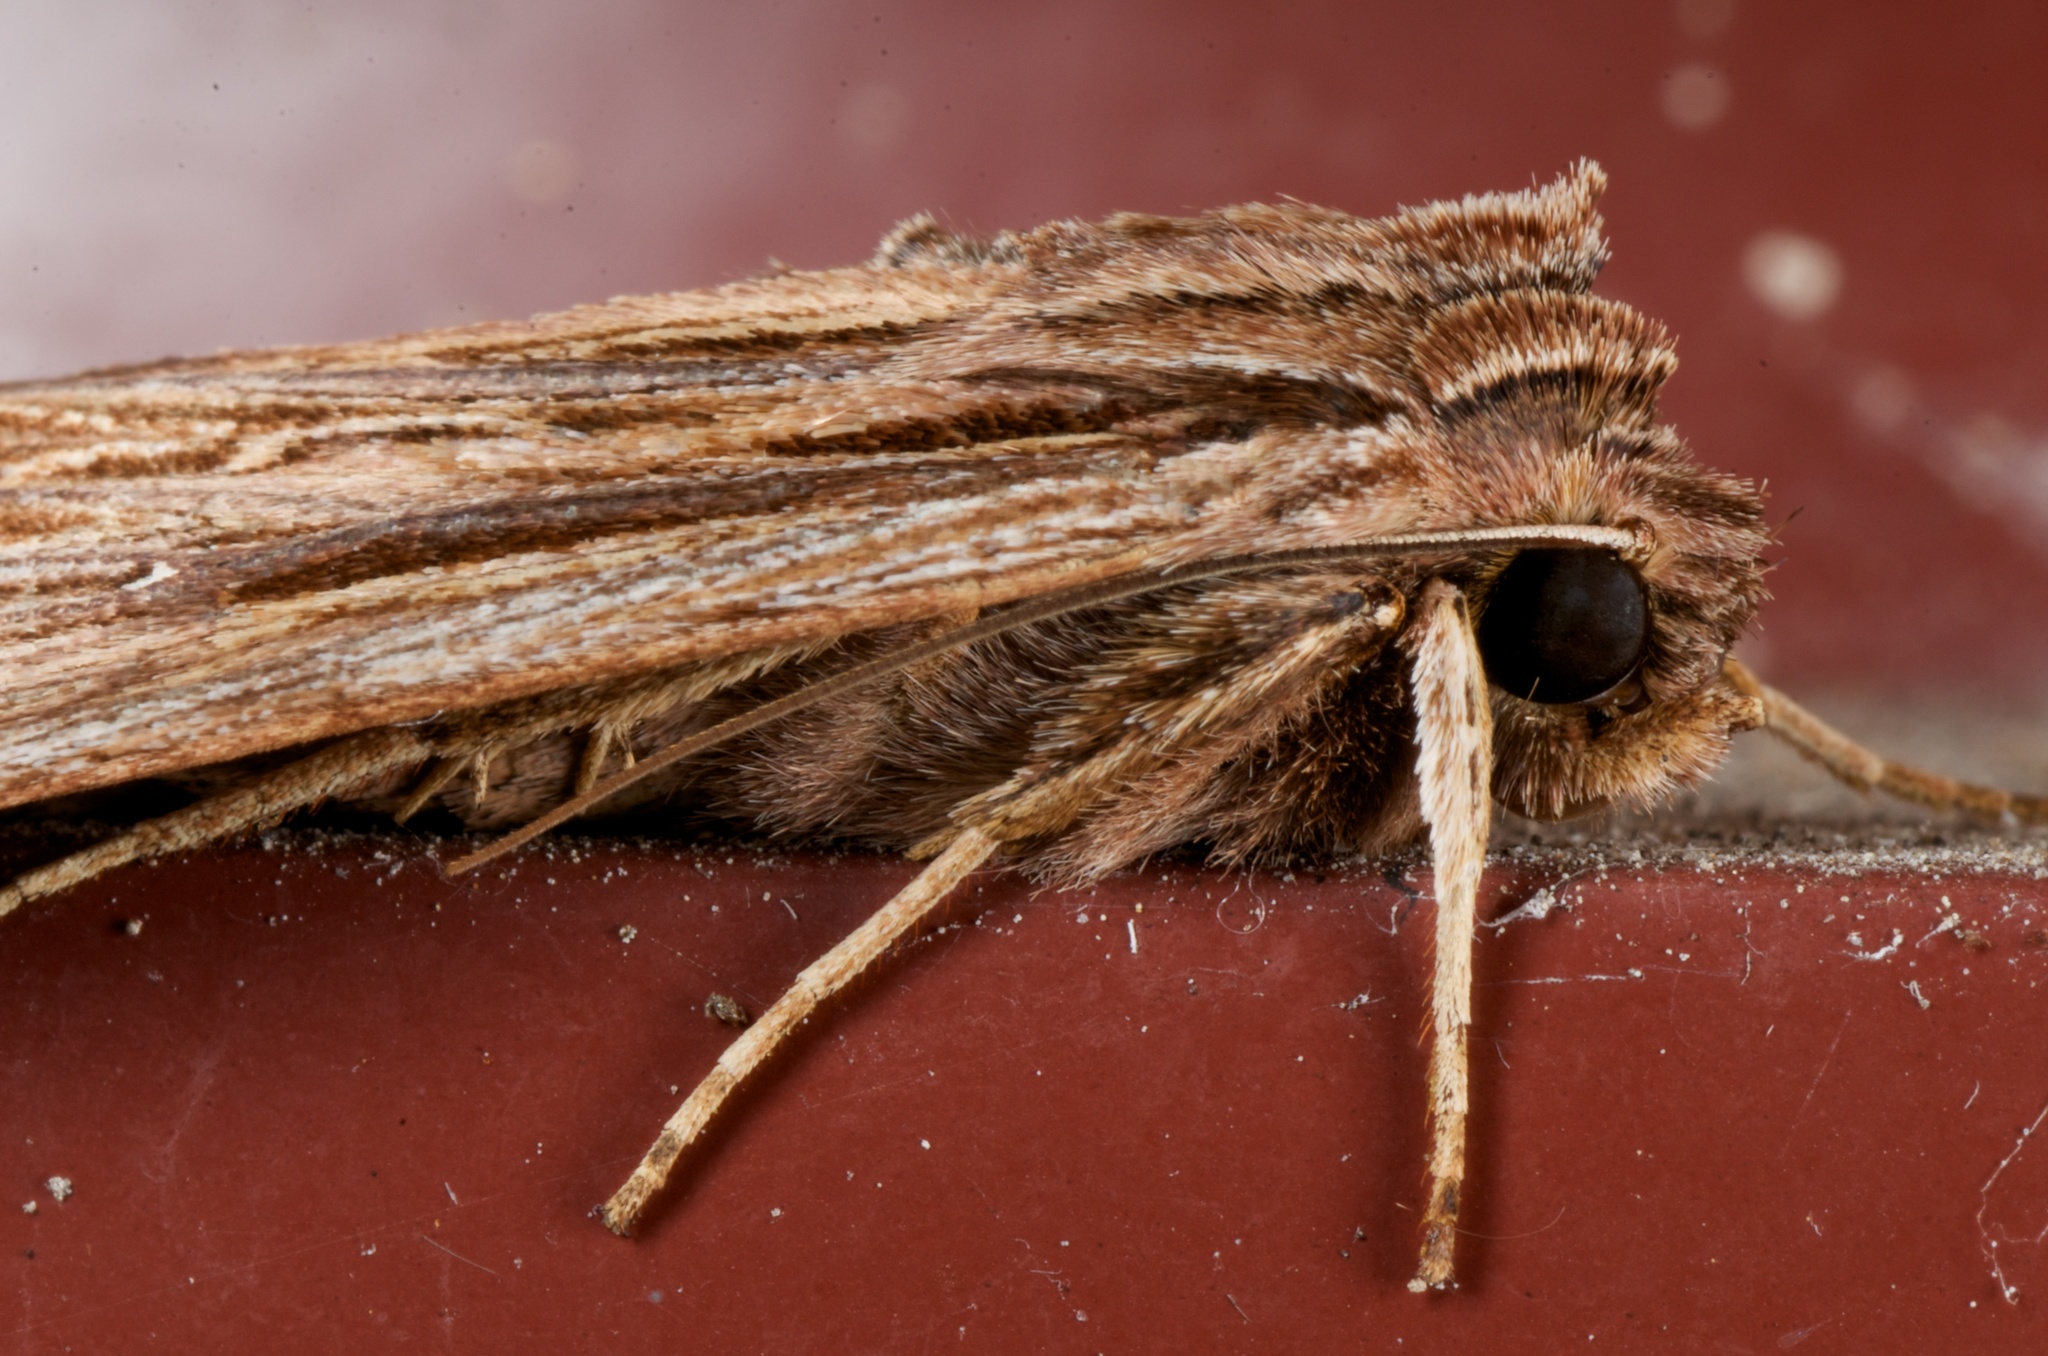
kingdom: Animalia
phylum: Arthropoda
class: Insecta
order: Lepidoptera
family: Noctuidae
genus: Ichneutica
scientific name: Ichneutica
